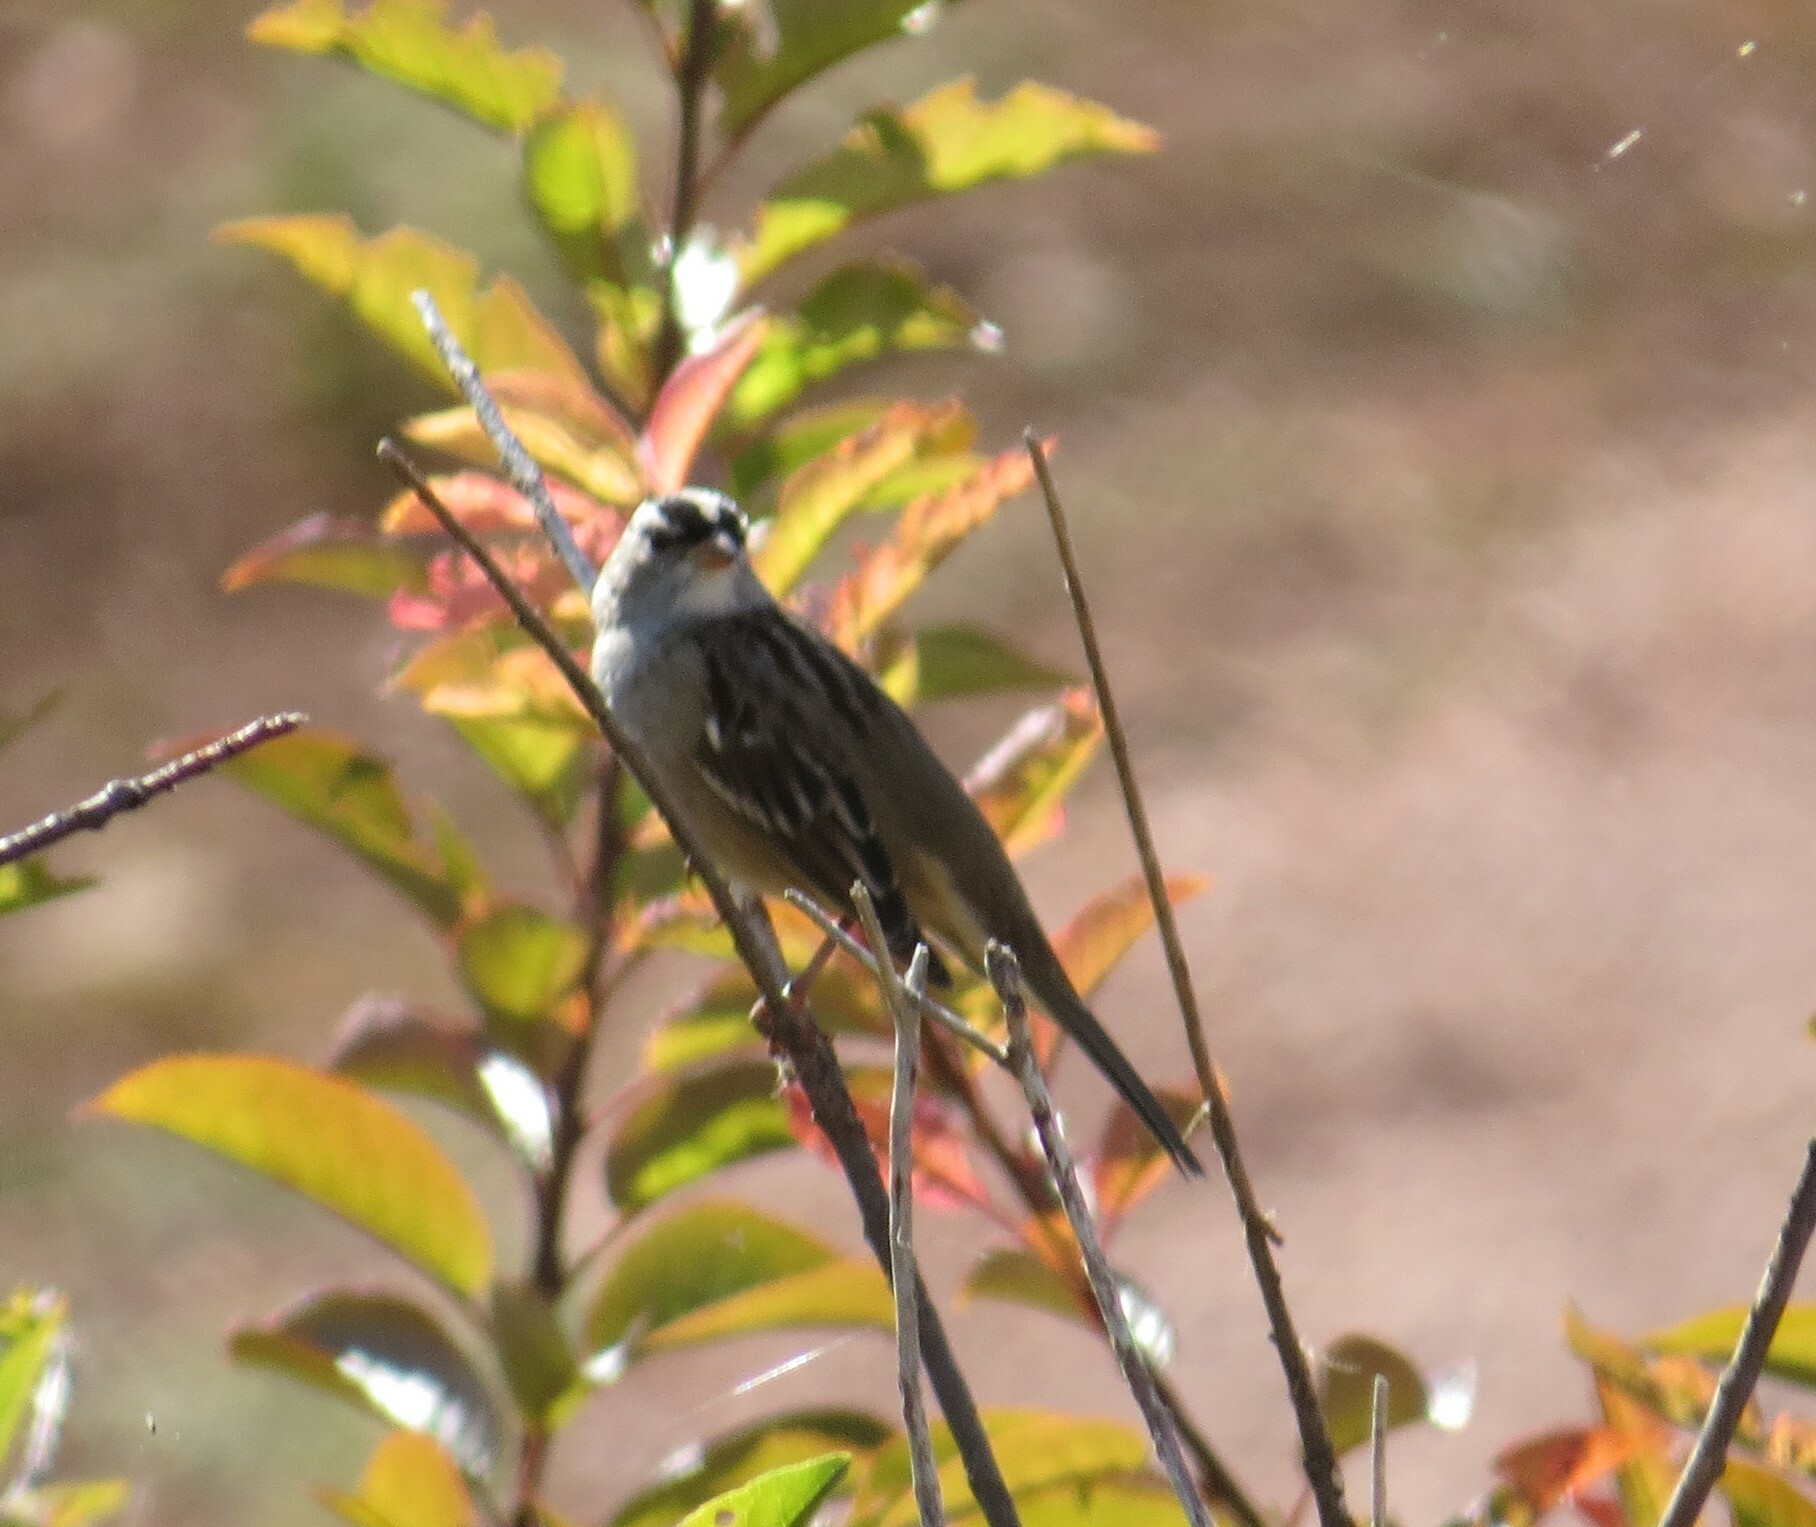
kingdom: Animalia
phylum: Chordata
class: Aves
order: Passeriformes
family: Passerellidae
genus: Zonotrichia
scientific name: Zonotrichia leucophrys
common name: White-crowned sparrow
